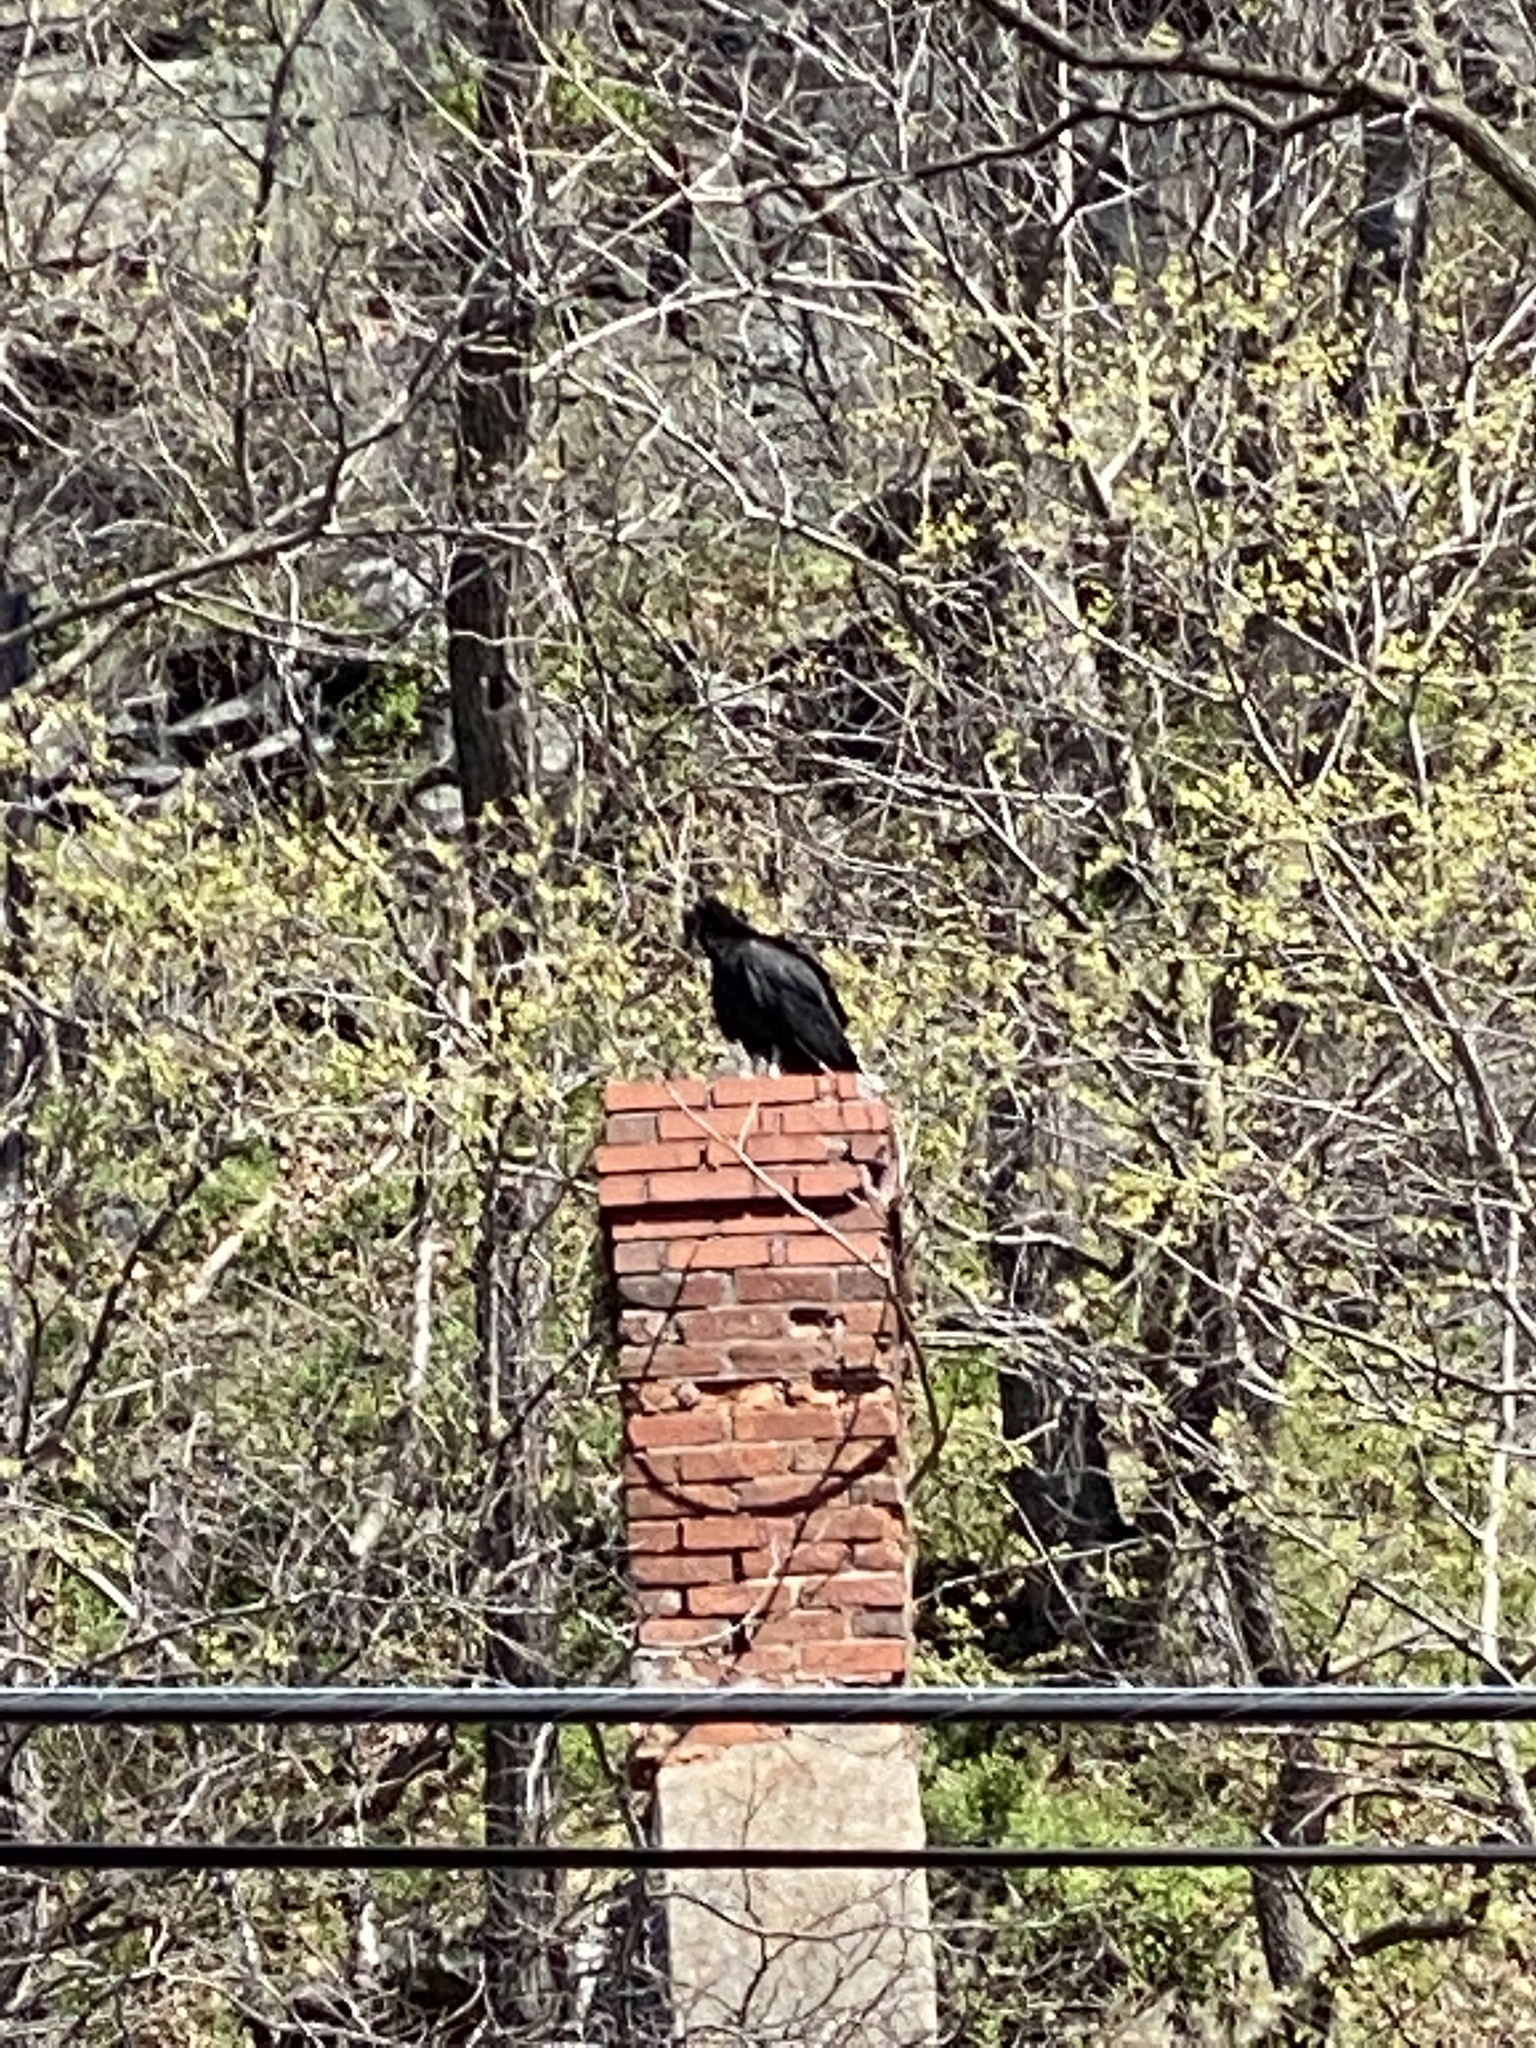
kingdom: Animalia
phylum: Chordata
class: Aves
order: Accipitriformes
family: Cathartidae
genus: Coragyps
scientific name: Coragyps atratus
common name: Black vulture
